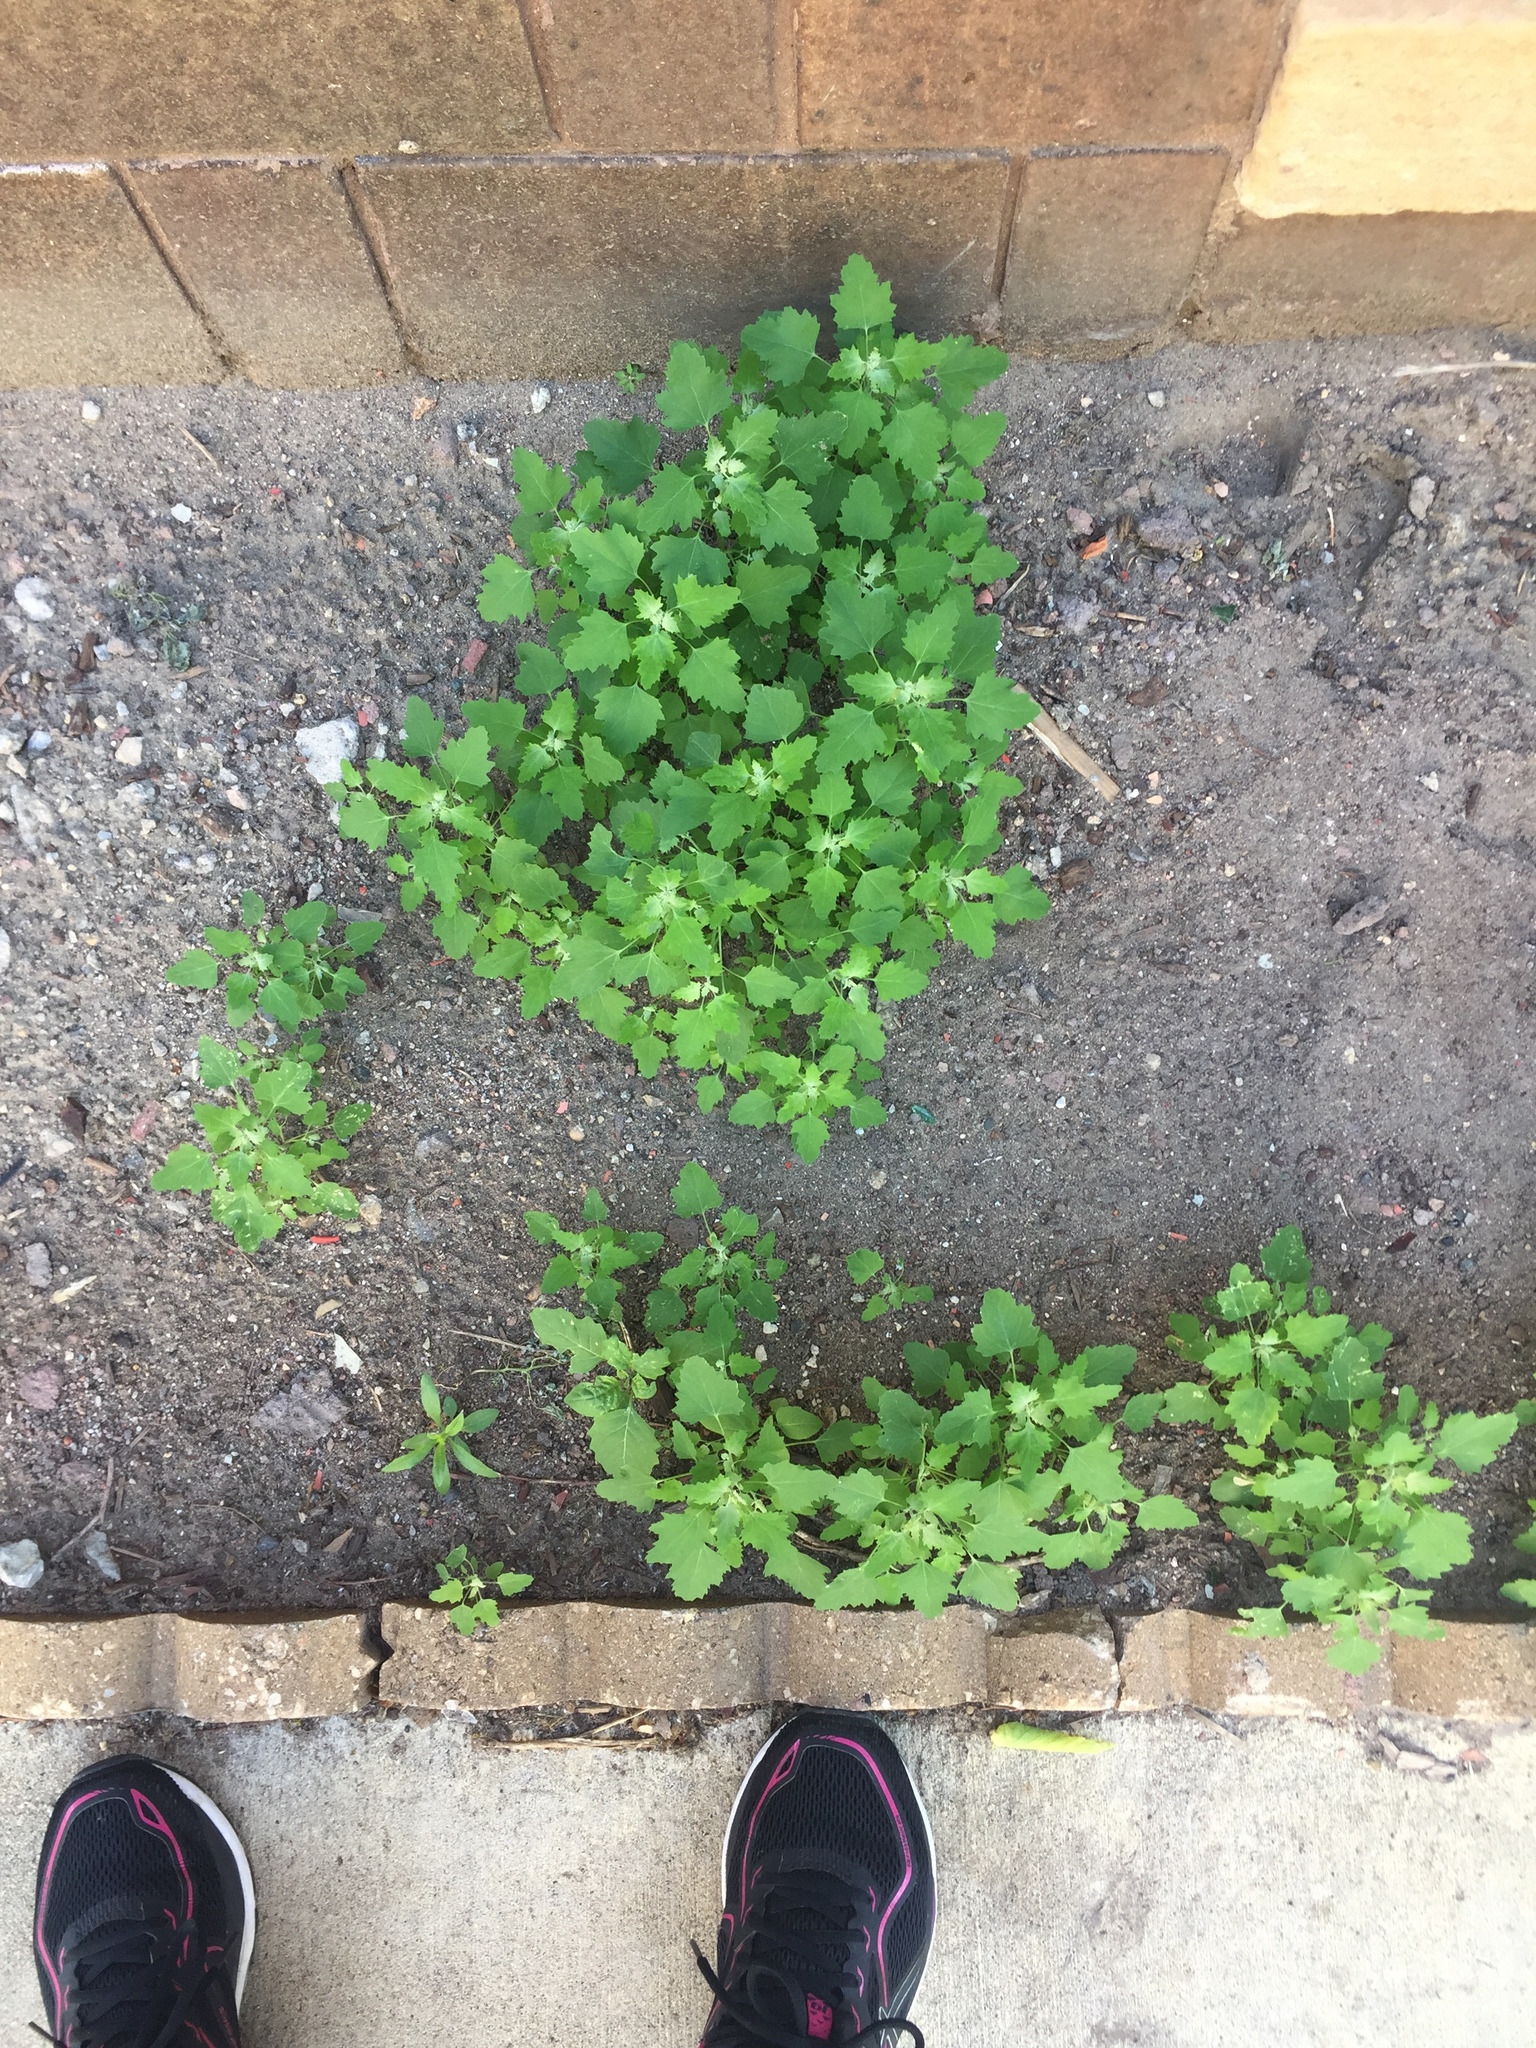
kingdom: Plantae
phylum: Tracheophyta
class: Magnoliopsida
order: Caryophyllales
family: Amaranthaceae
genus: Chenopodium
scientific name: Chenopodium album
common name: Fat-hen
